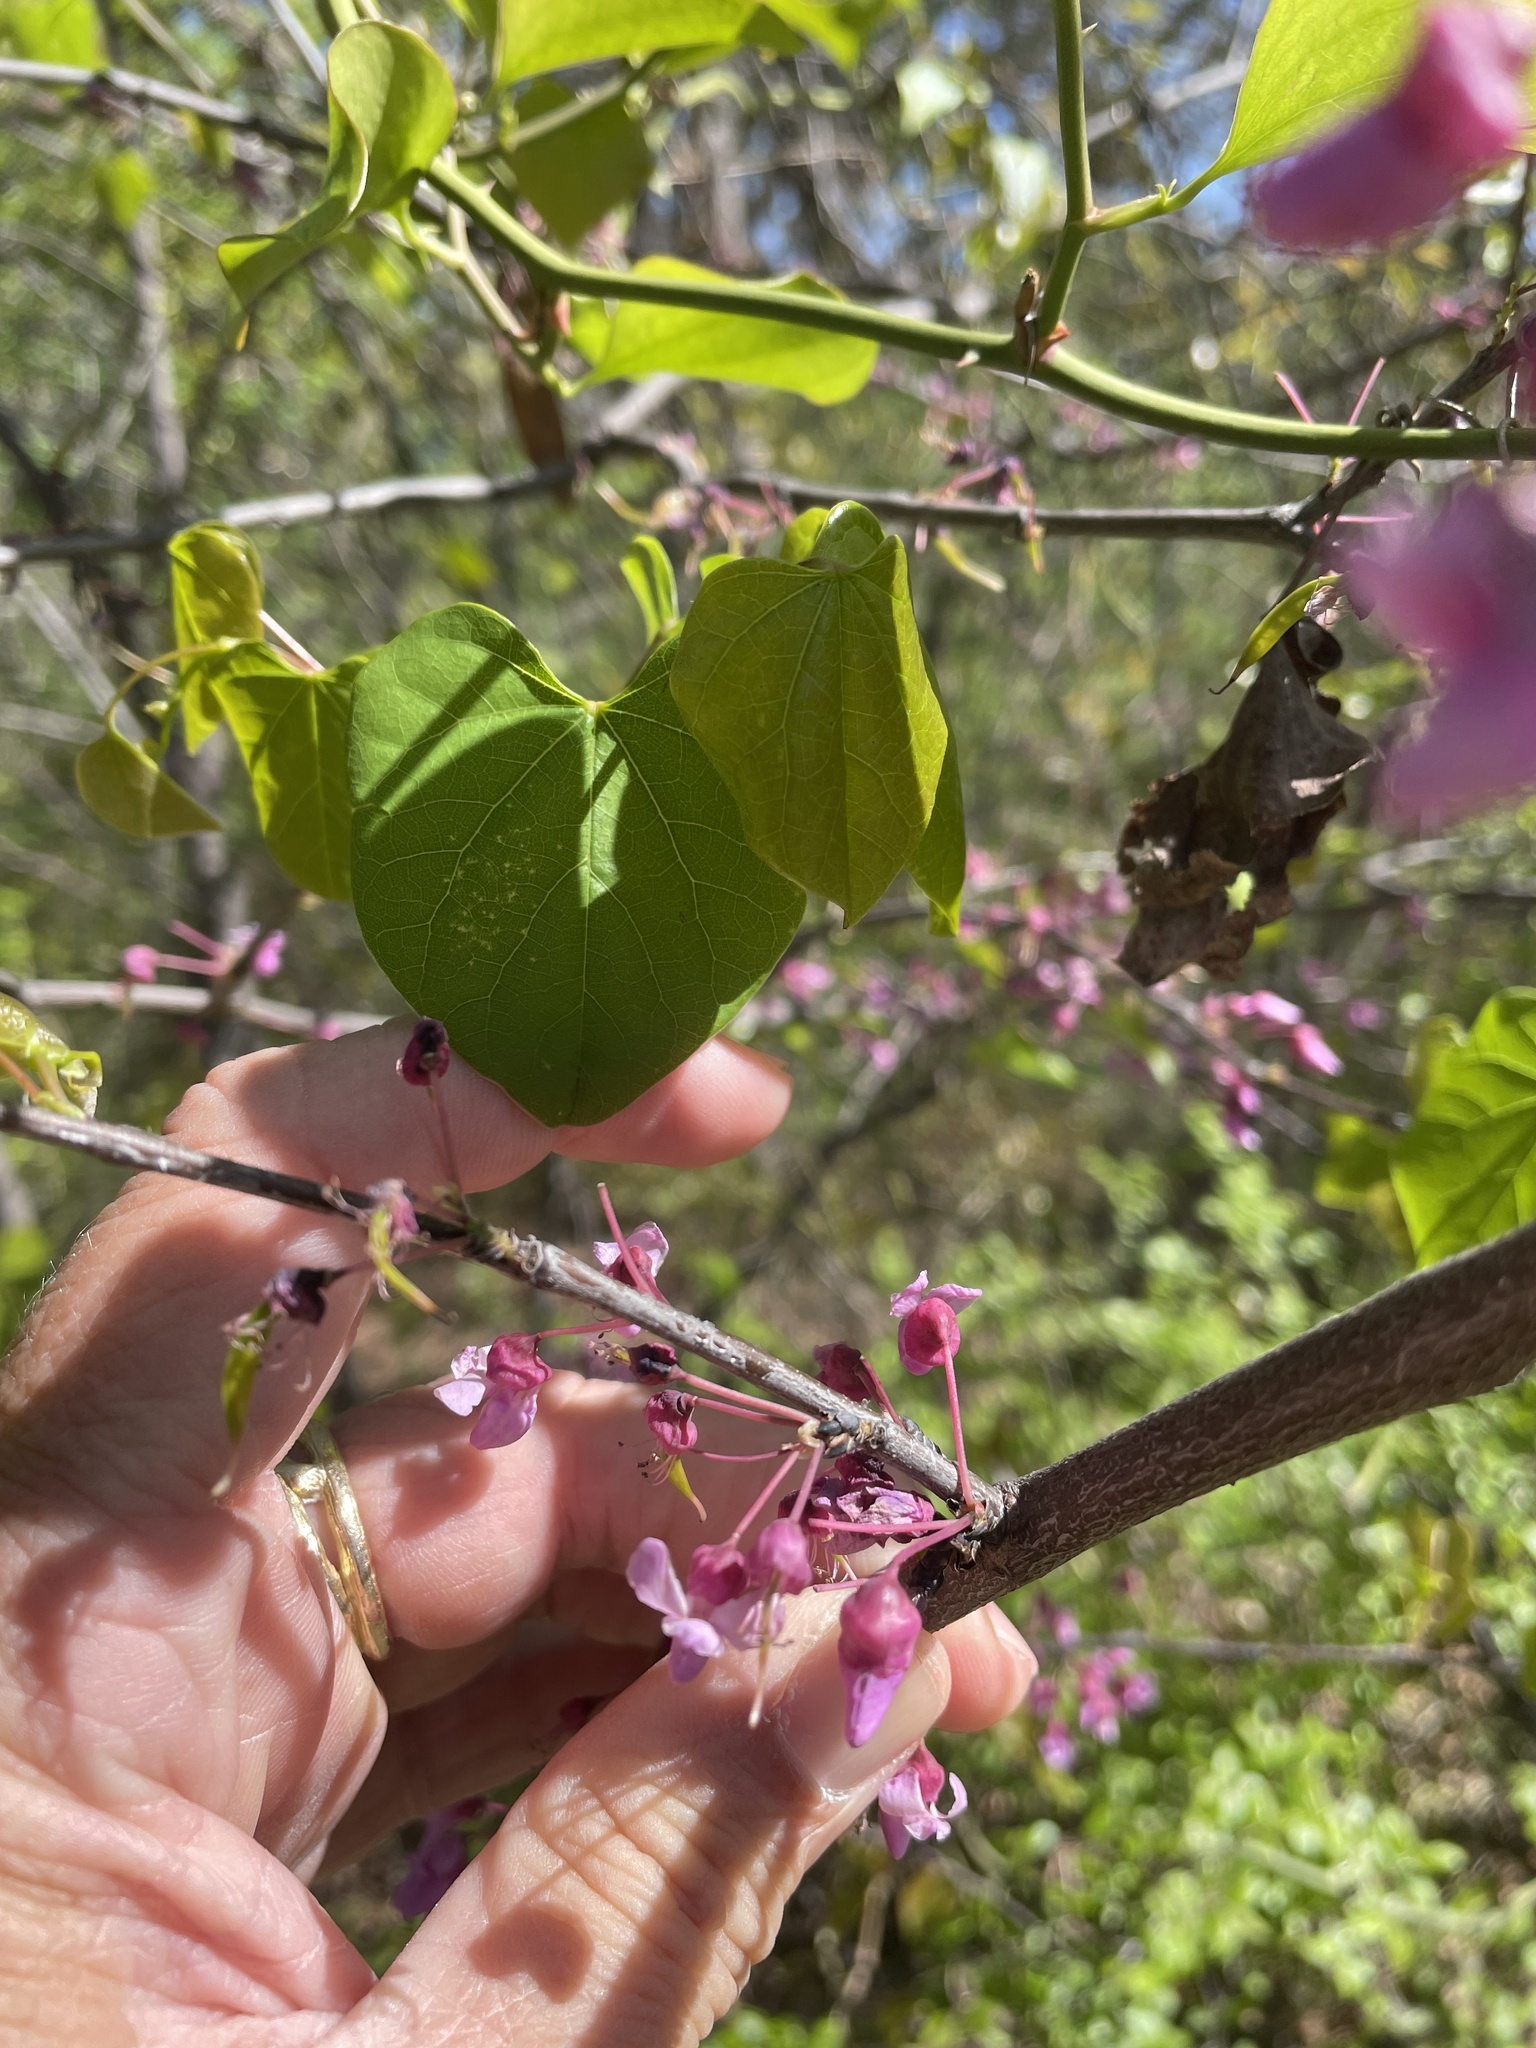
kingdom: Plantae
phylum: Tracheophyta
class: Magnoliopsida
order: Fabales
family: Fabaceae
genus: Cercis
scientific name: Cercis canadensis
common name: Eastern redbud
